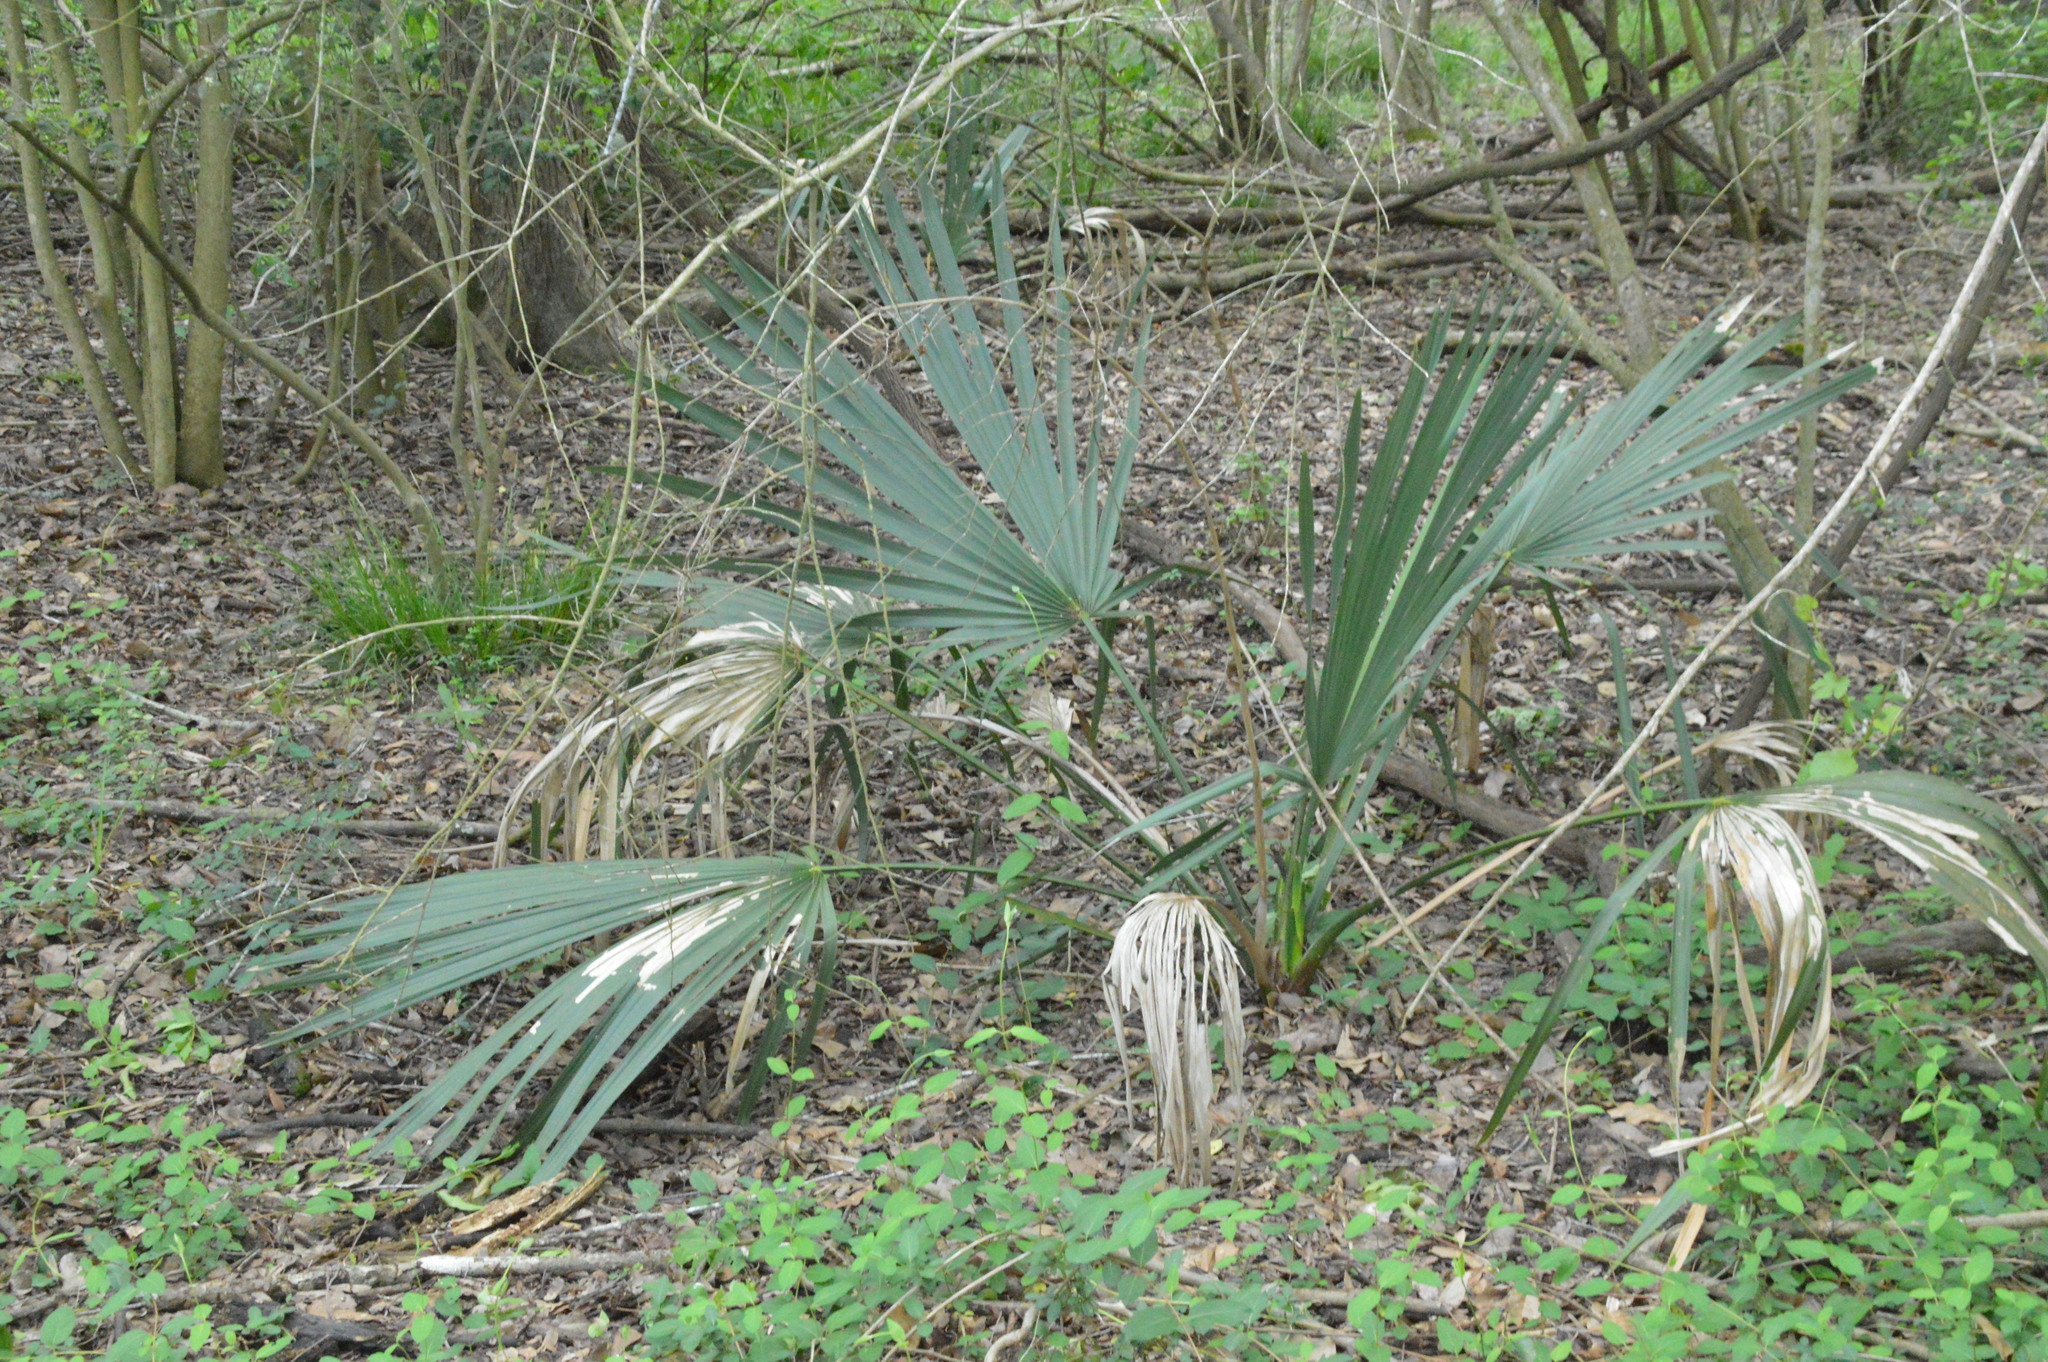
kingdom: Plantae
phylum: Tracheophyta
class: Liliopsida
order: Arecales
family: Arecaceae
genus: Sabal
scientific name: Sabal minor
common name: Dwarf palmetto
